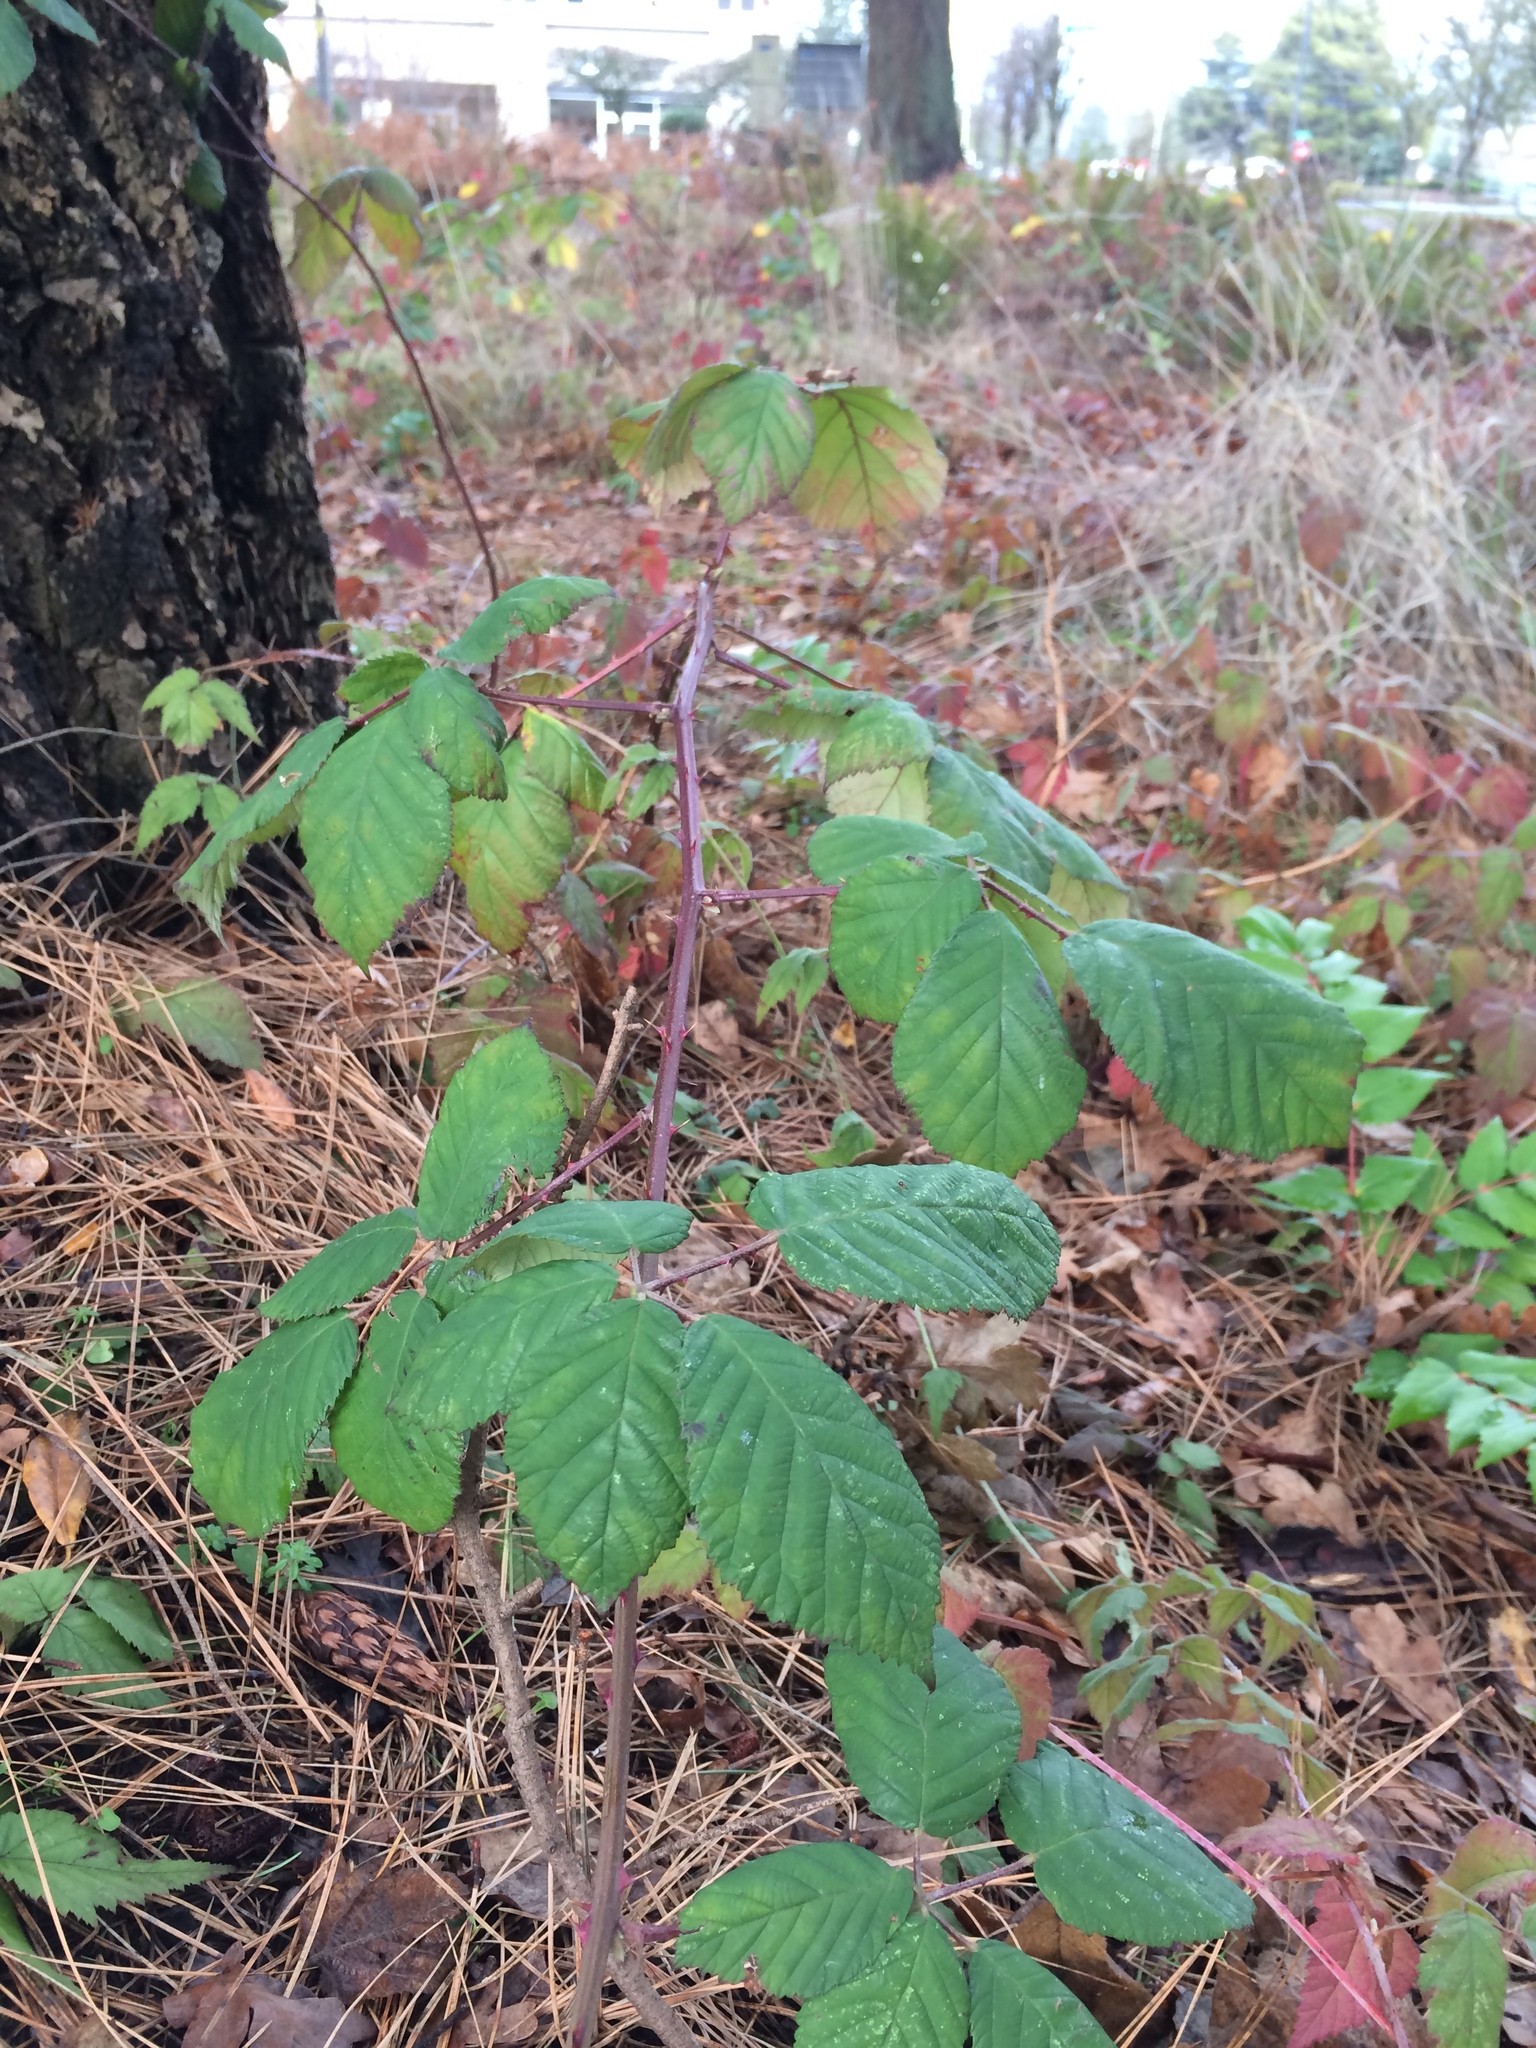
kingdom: Plantae
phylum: Tracheophyta
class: Magnoliopsida
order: Rosales
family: Rosaceae
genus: Rubus
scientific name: Rubus armeniacus
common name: Himalayan blackberry
